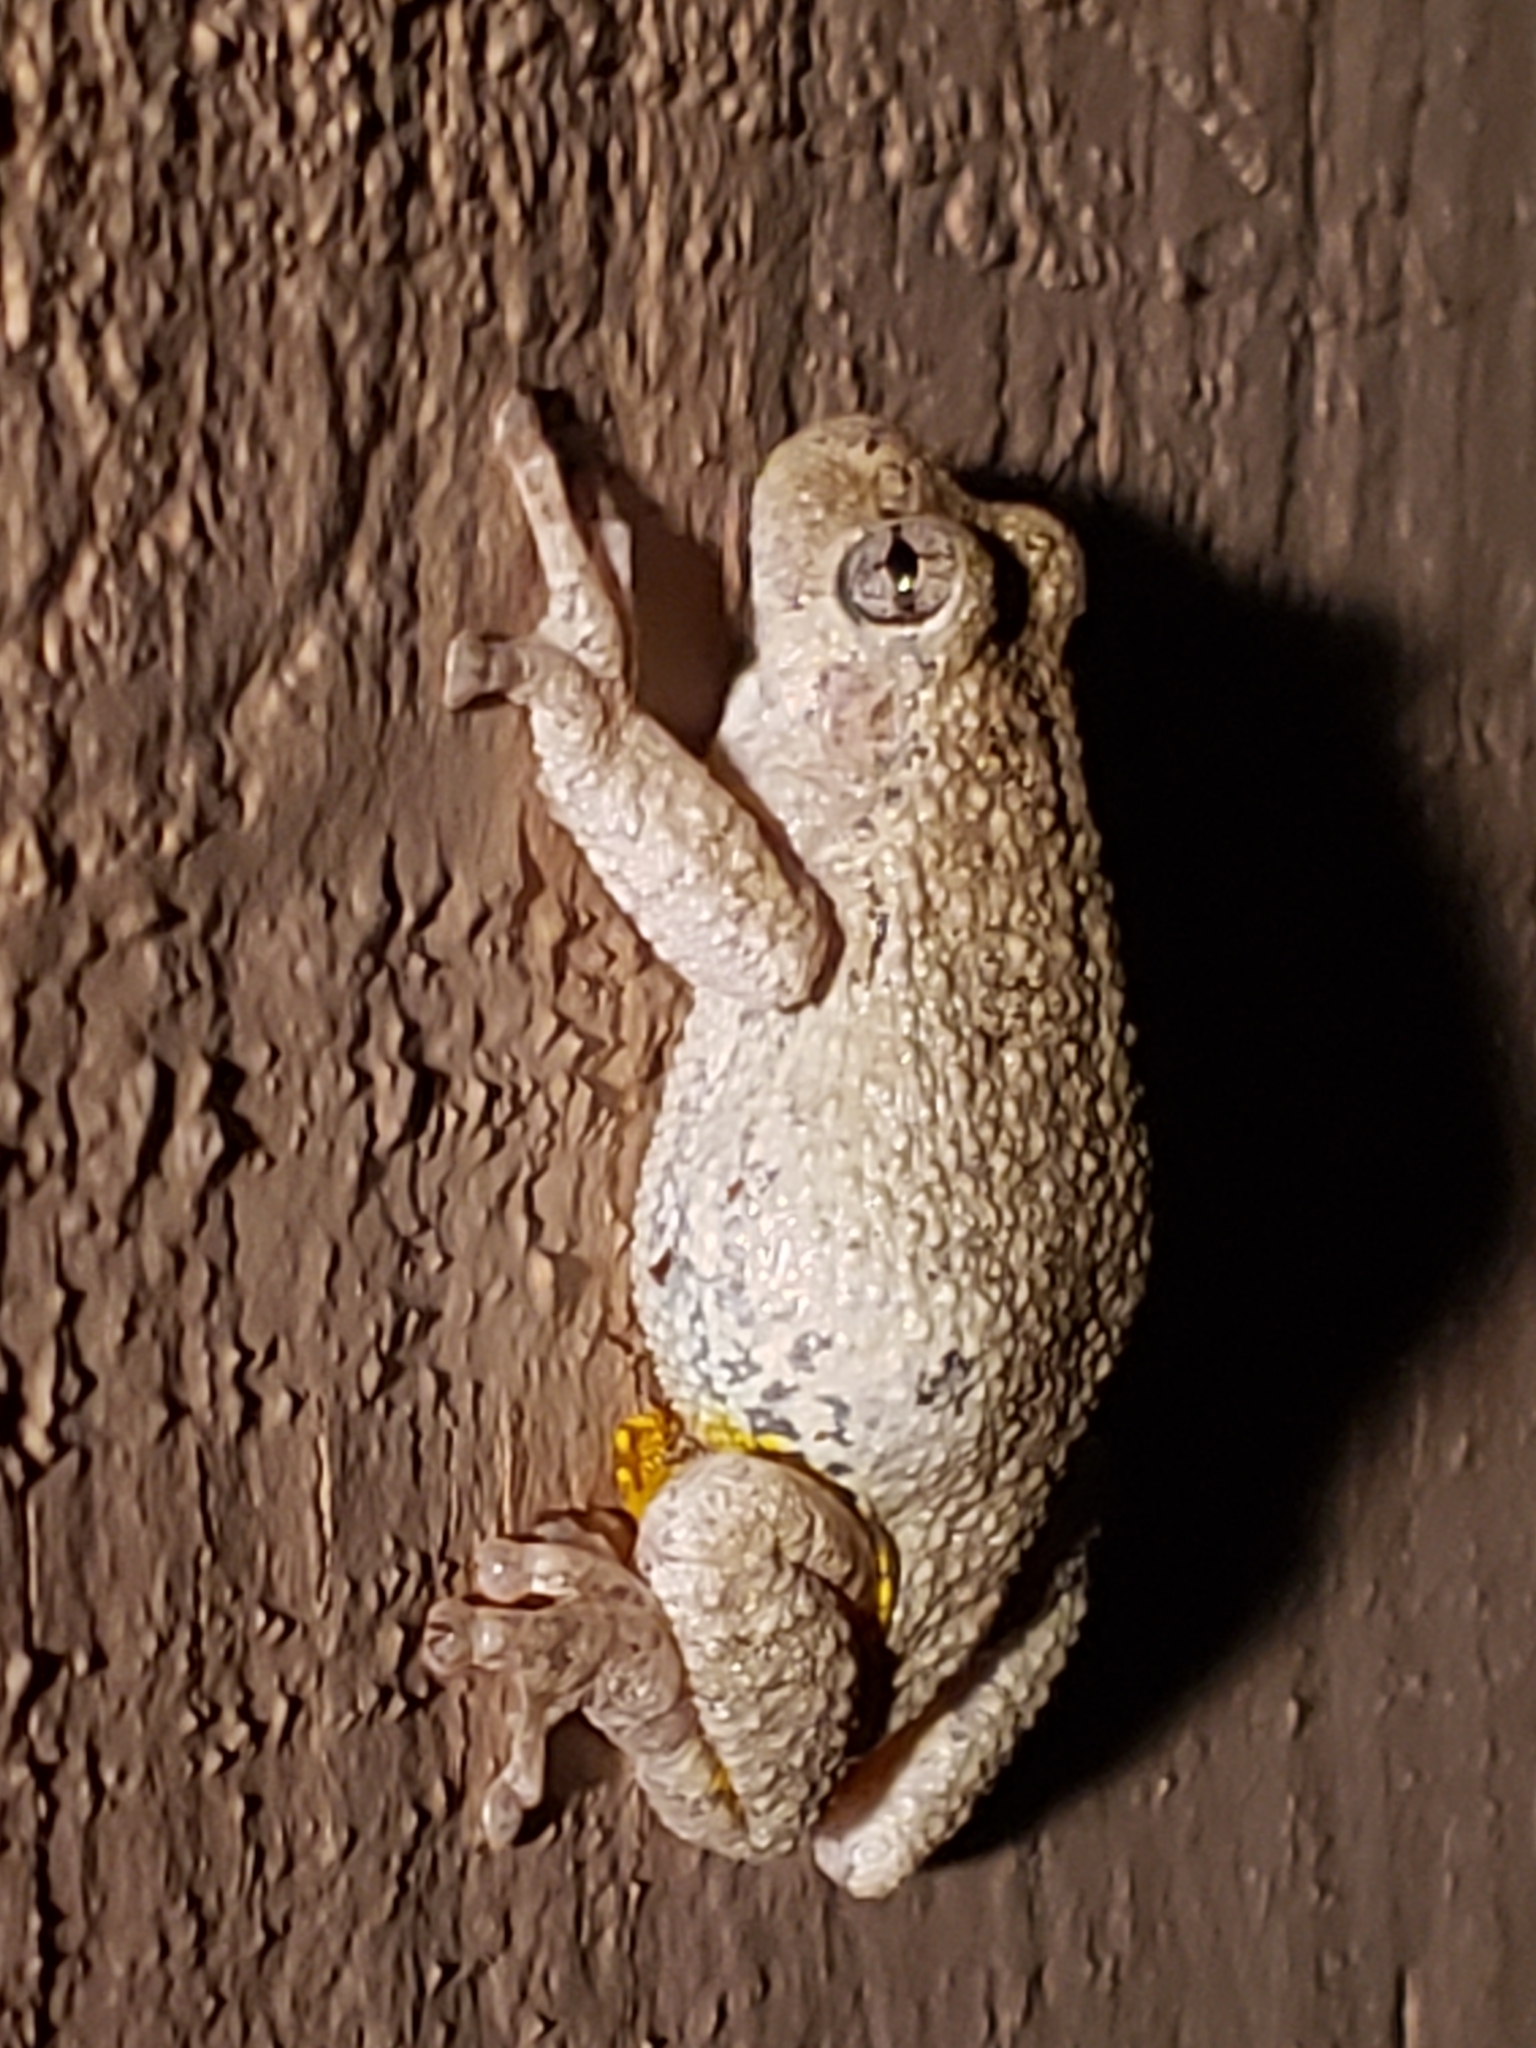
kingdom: Animalia
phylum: Chordata
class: Amphibia
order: Anura
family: Hylidae
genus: Hyla
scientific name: Hyla
